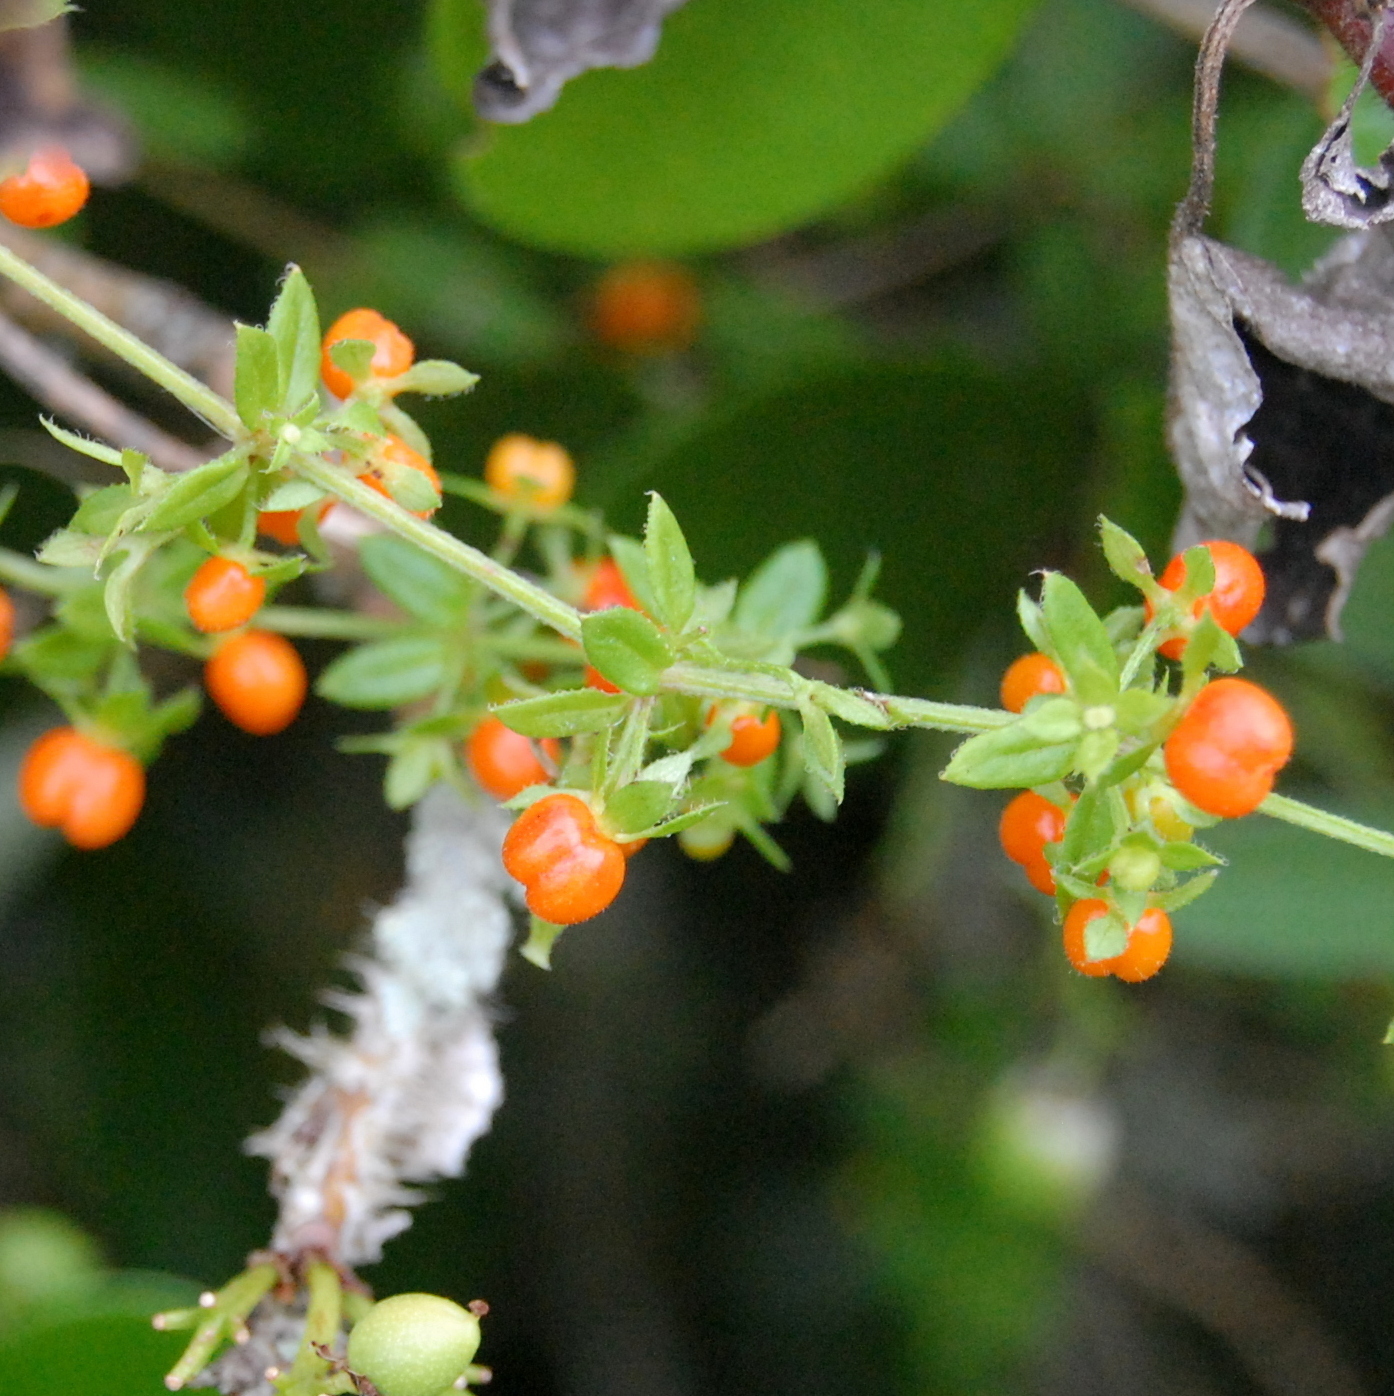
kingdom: Plantae
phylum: Tracheophyta
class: Magnoliopsida
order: Gentianales
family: Rubiaceae
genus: Galium
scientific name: Galium hypocarpium
